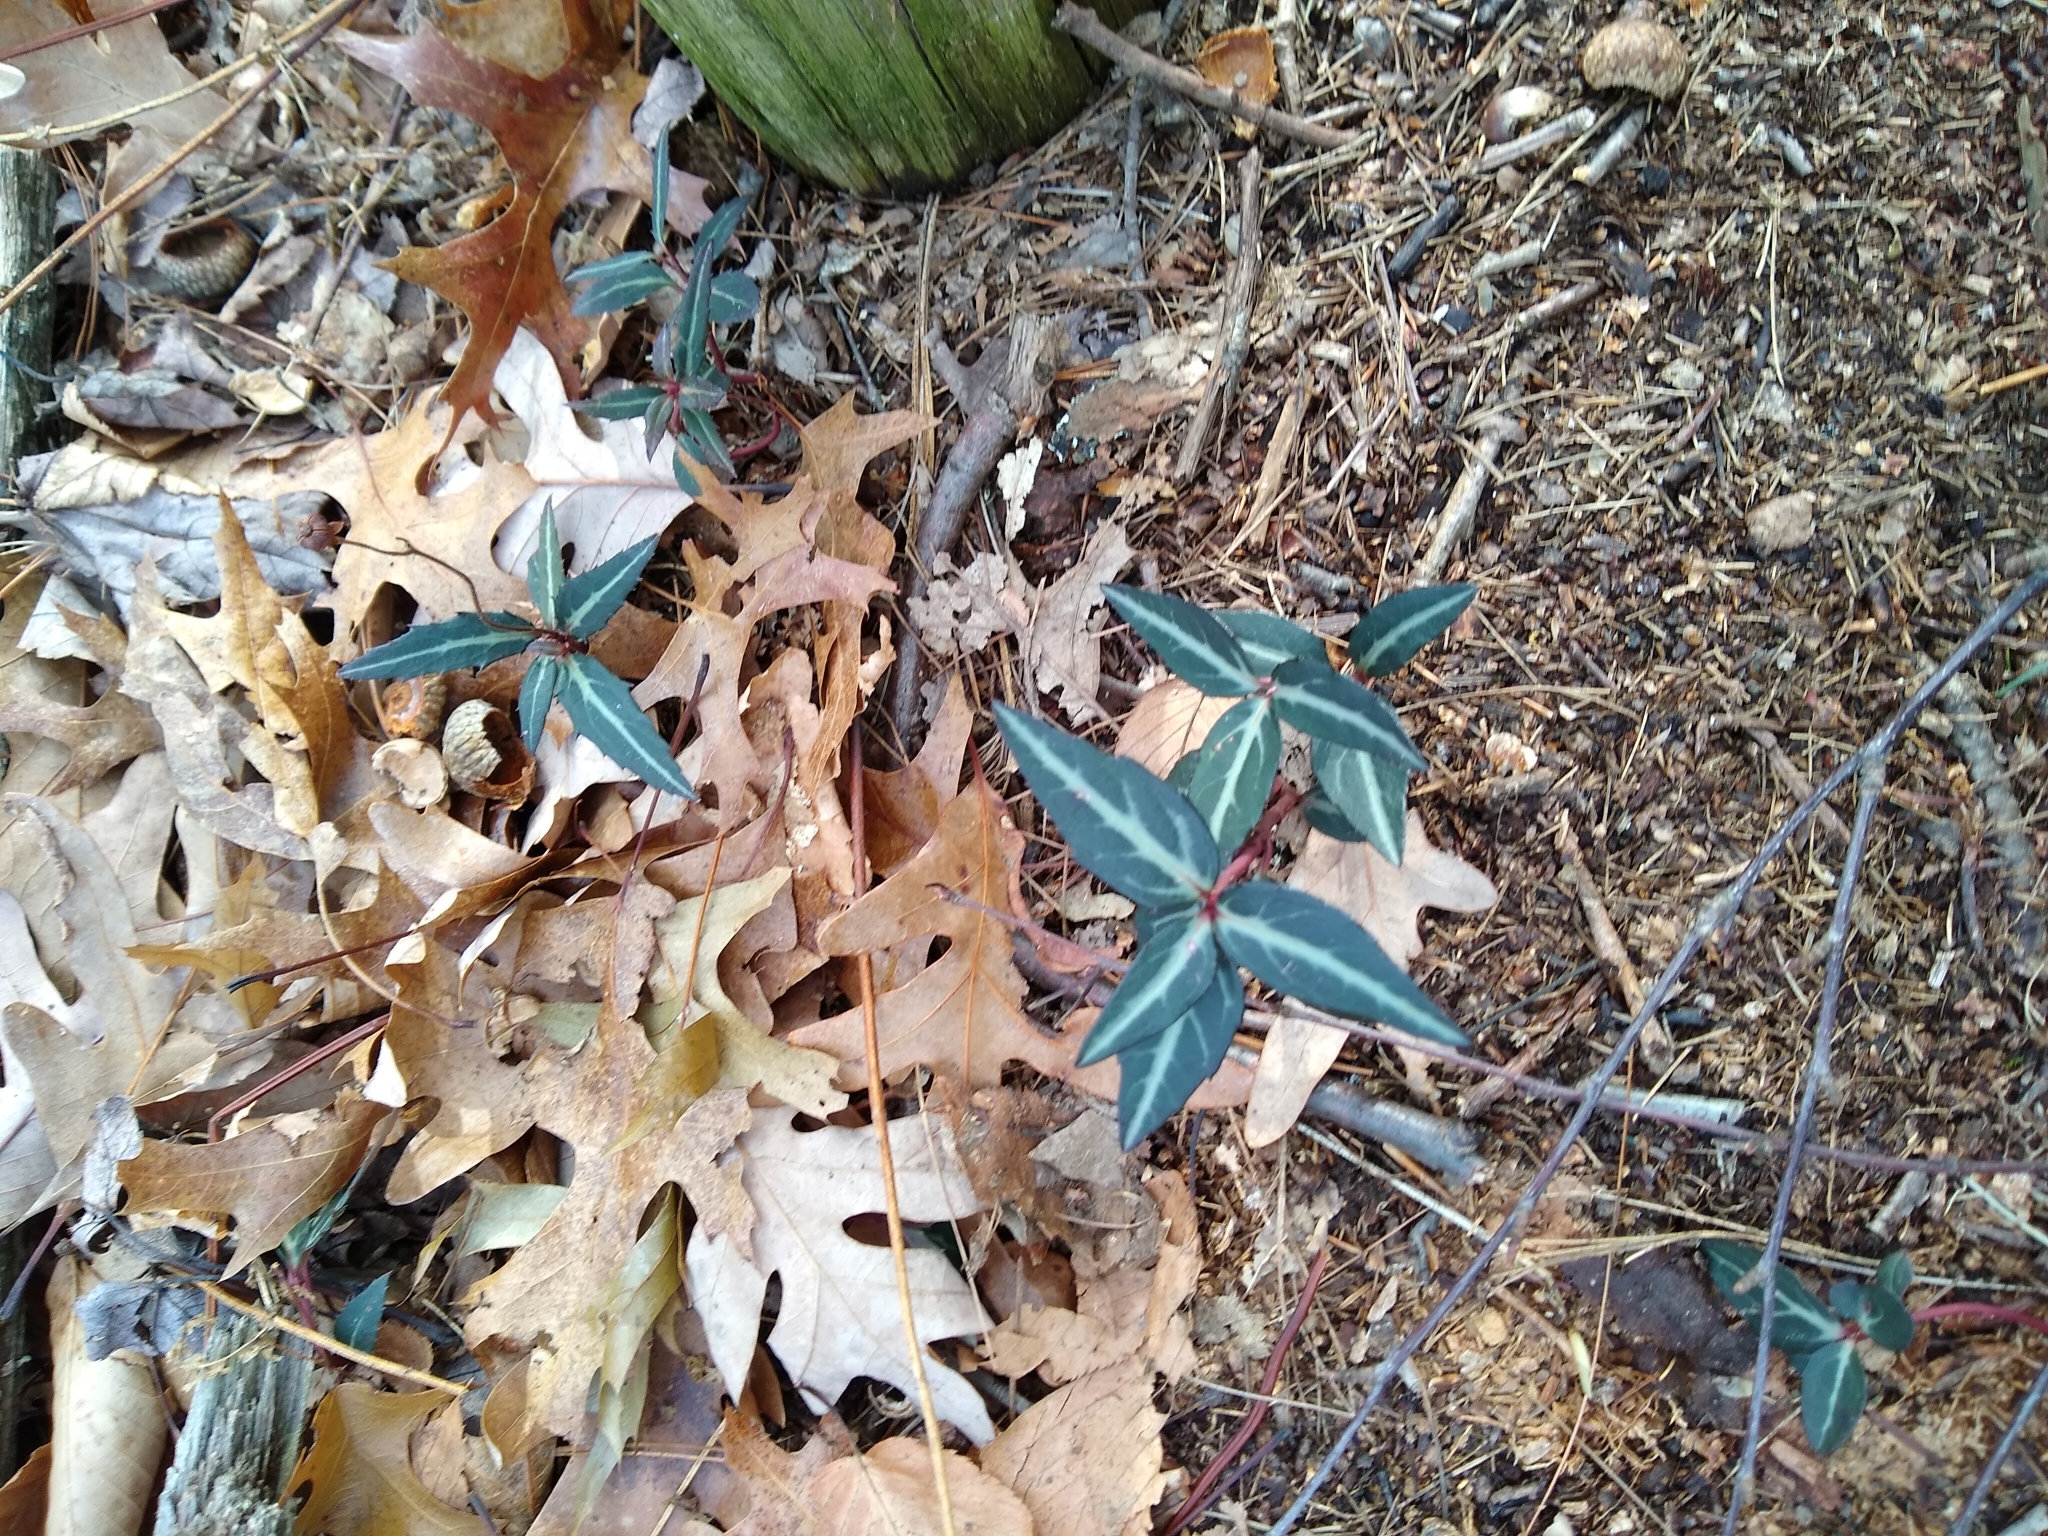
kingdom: Plantae
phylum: Tracheophyta
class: Magnoliopsida
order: Ericales
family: Ericaceae
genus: Chimaphila
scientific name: Chimaphila maculata
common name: Spotted pipsissewa
